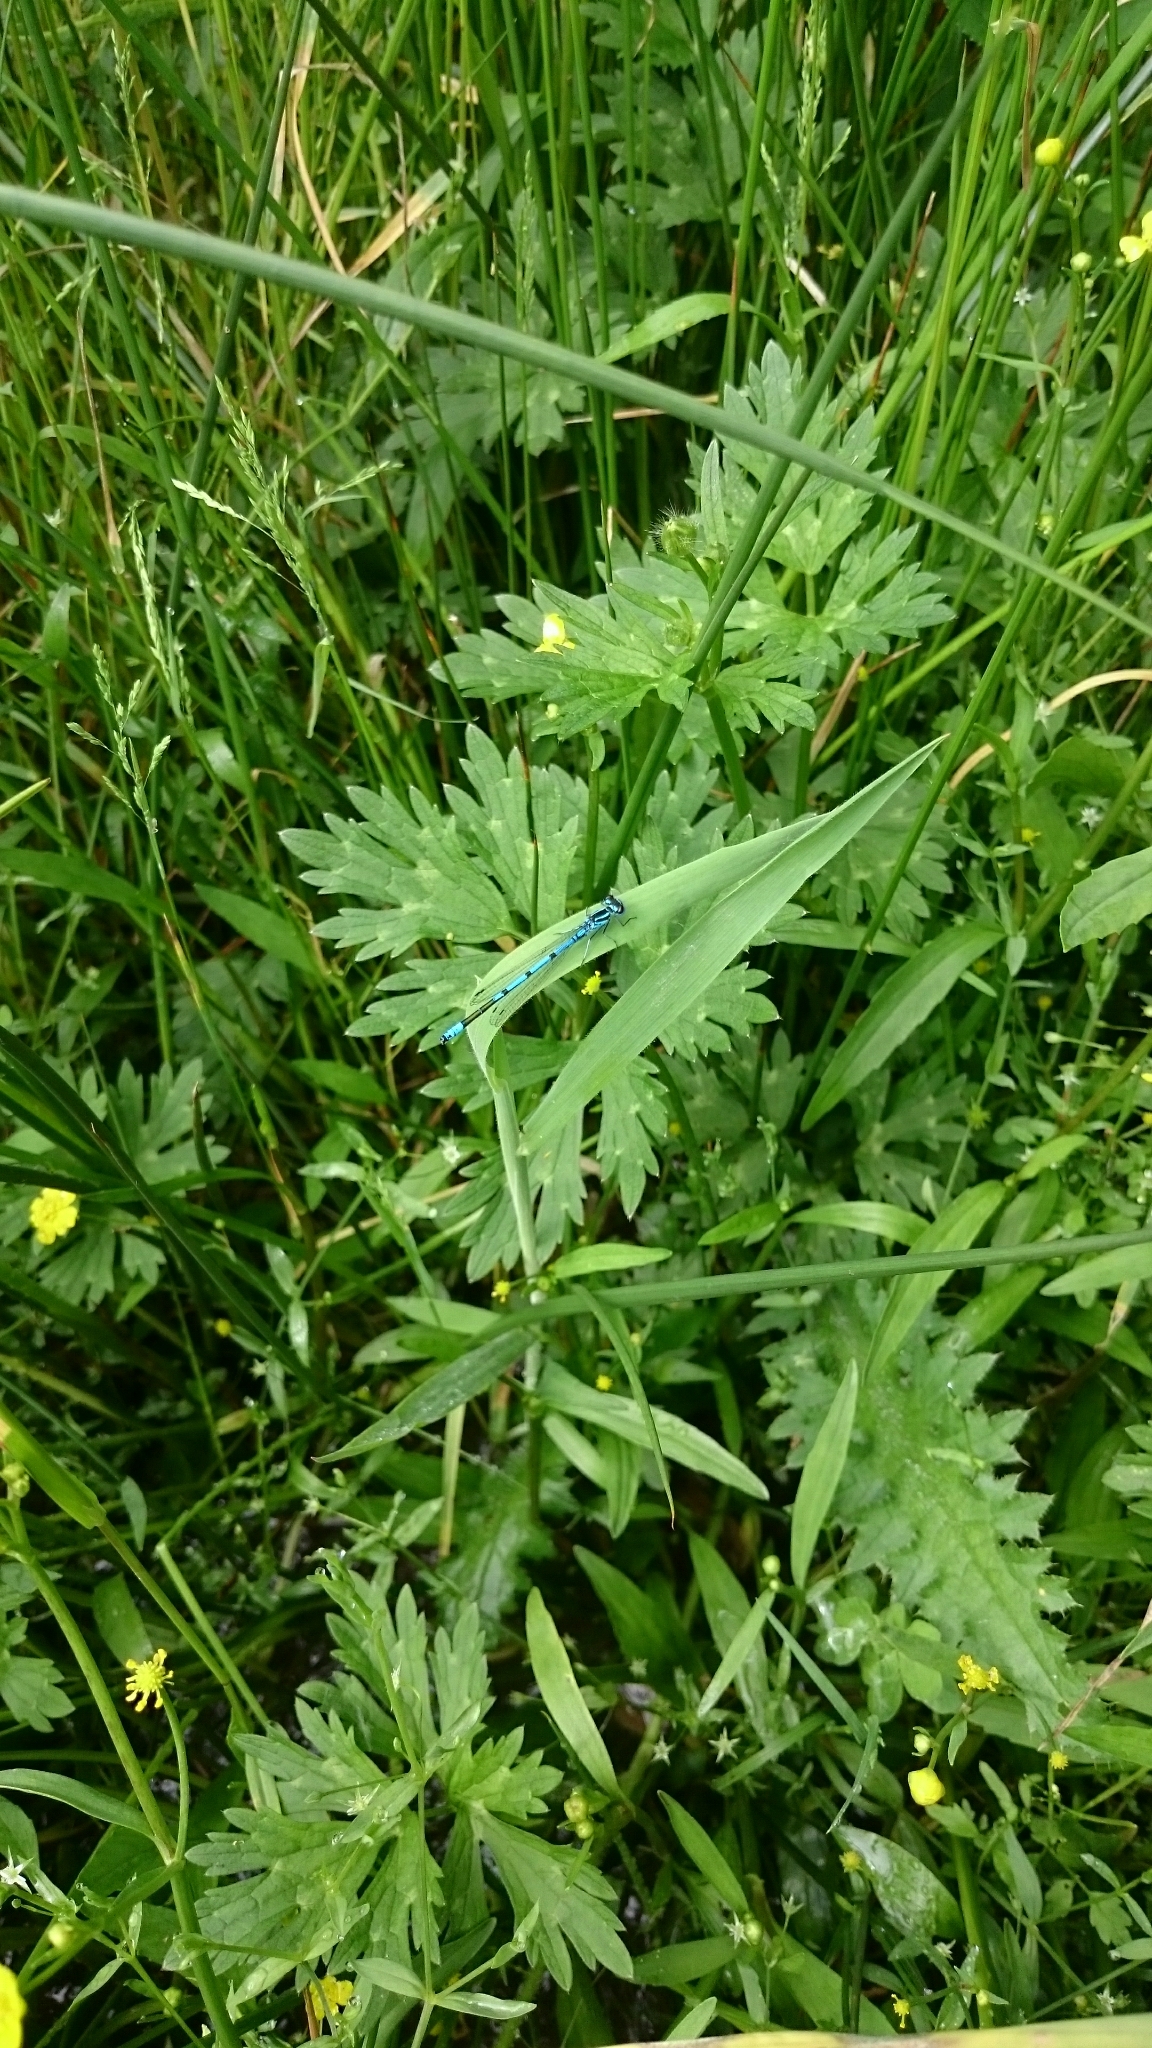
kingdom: Animalia
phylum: Arthropoda
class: Insecta
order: Odonata
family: Coenagrionidae
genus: Coenagrion
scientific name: Coenagrion puella
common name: Azure damselfly
